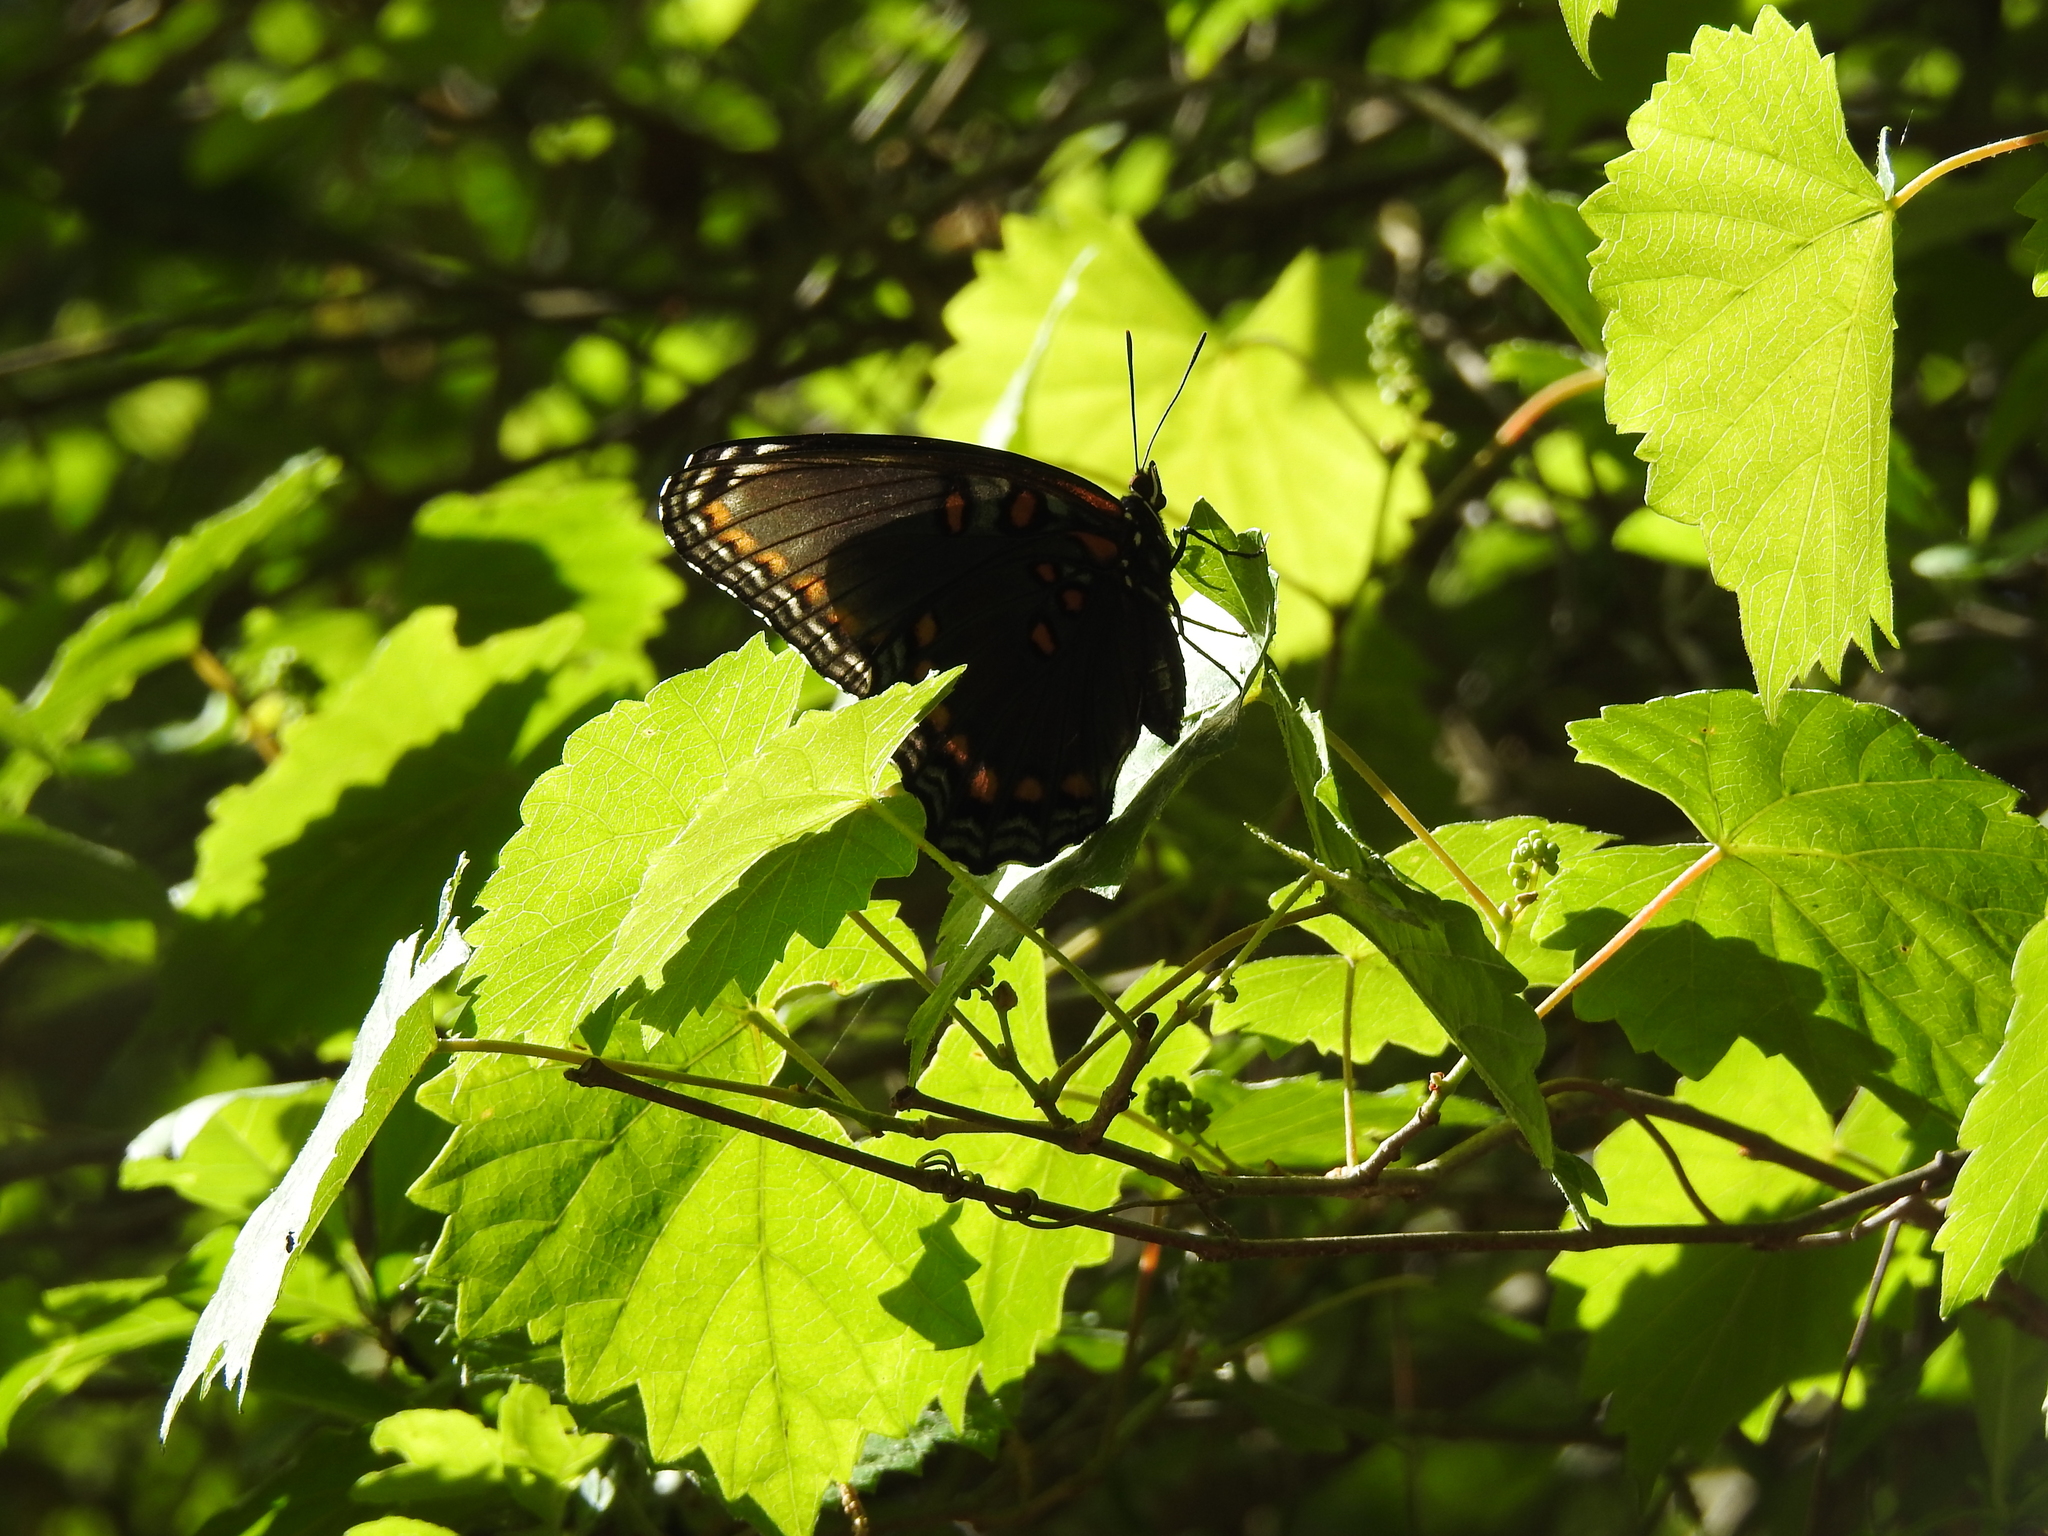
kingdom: Animalia
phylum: Arthropoda
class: Insecta
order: Lepidoptera
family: Nymphalidae
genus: Limenitis
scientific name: Limenitis astyanax
